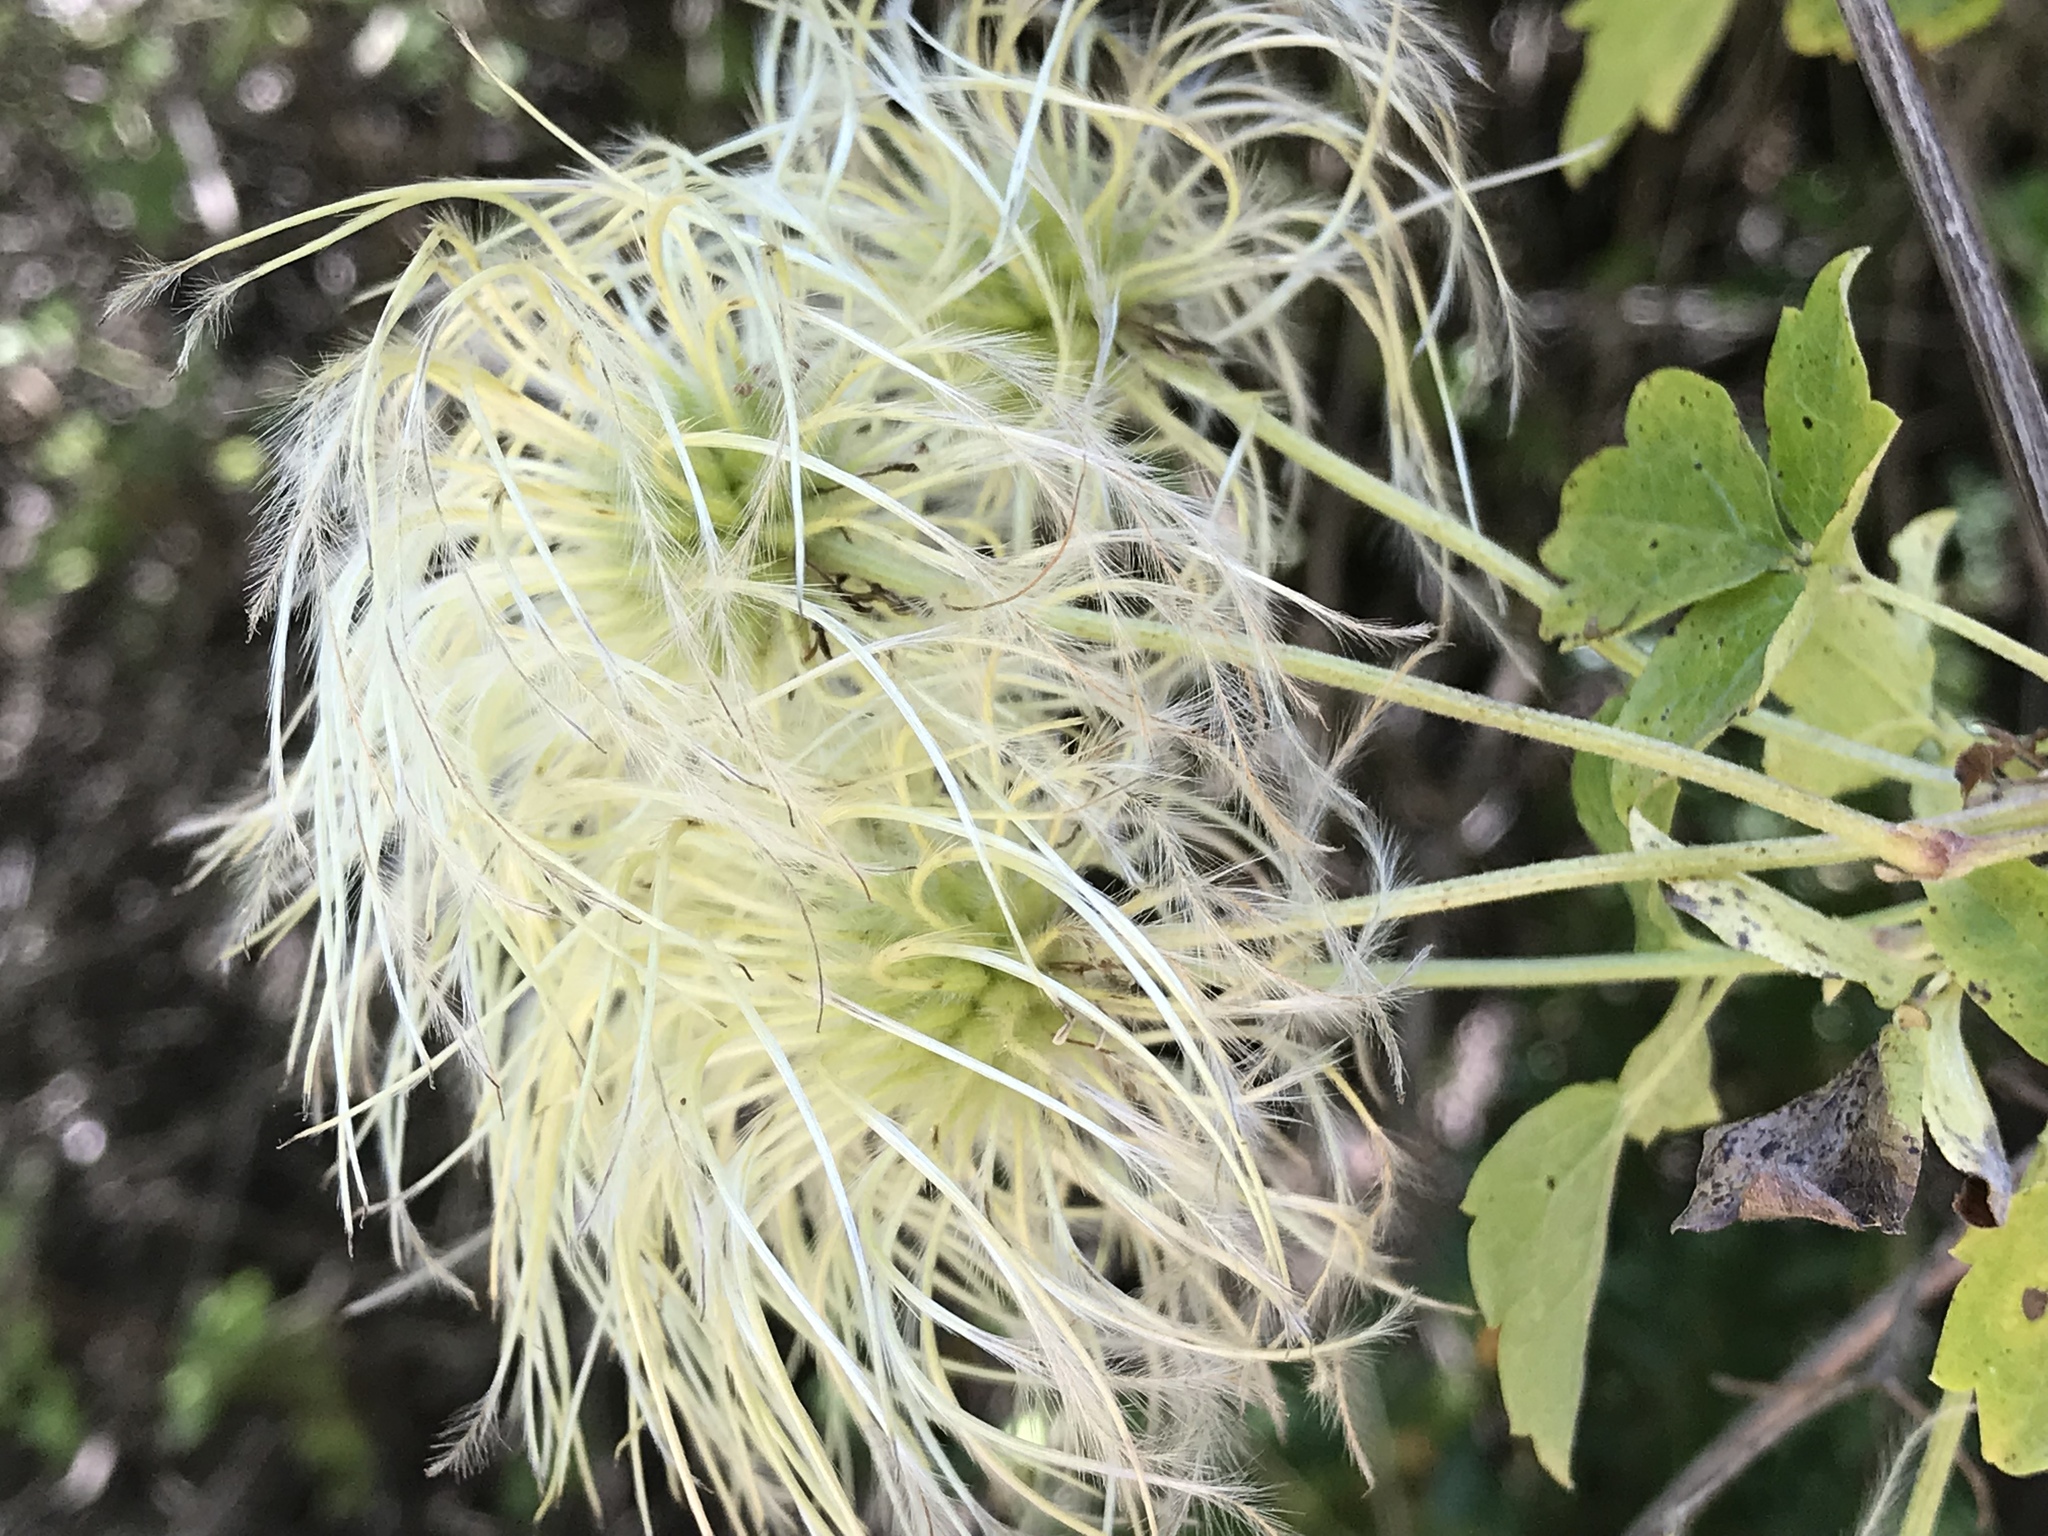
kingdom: Plantae
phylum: Tracheophyta
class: Magnoliopsida
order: Ranunculales
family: Ranunculaceae
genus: Clematis
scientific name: Clematis lasiantha
